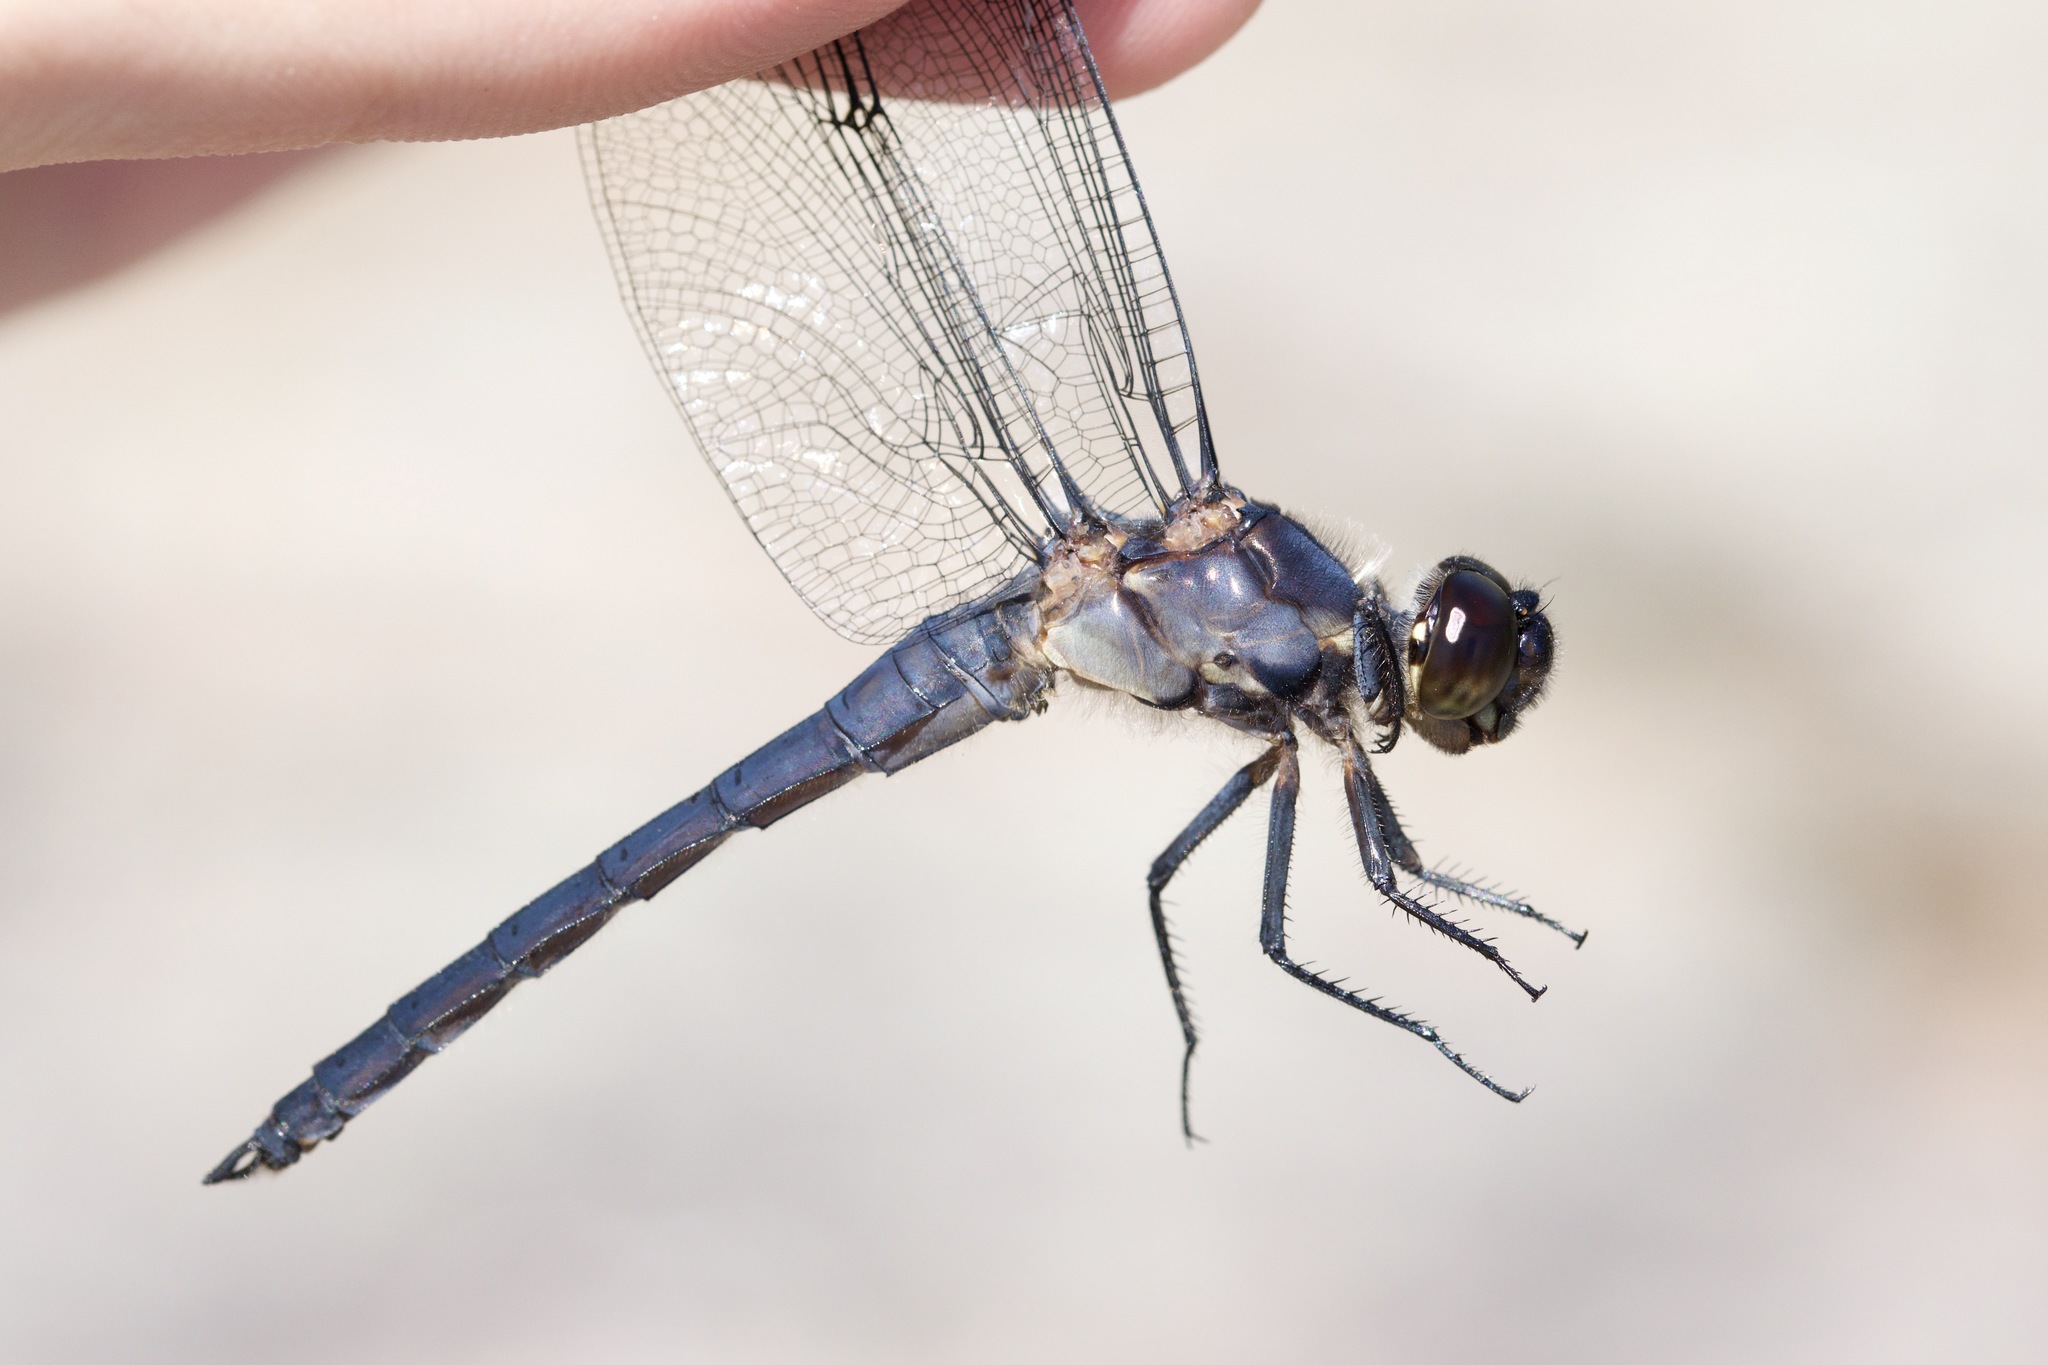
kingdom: Animalia
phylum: Arthropoda
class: Insecta
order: Odonata
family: Libellulidae
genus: Libellula
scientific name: Libellula incesta
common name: Slaty skimmer
